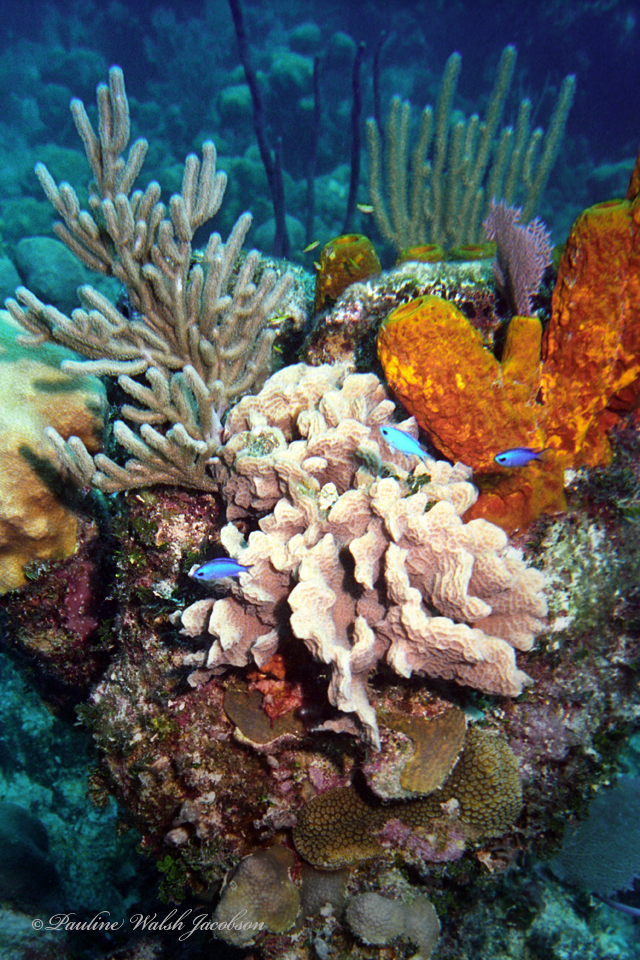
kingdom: Animalia
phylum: Chordata
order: Perciformes
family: Pomacentridae
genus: Chromis
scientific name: Chromis cyanea
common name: Blue chromis
